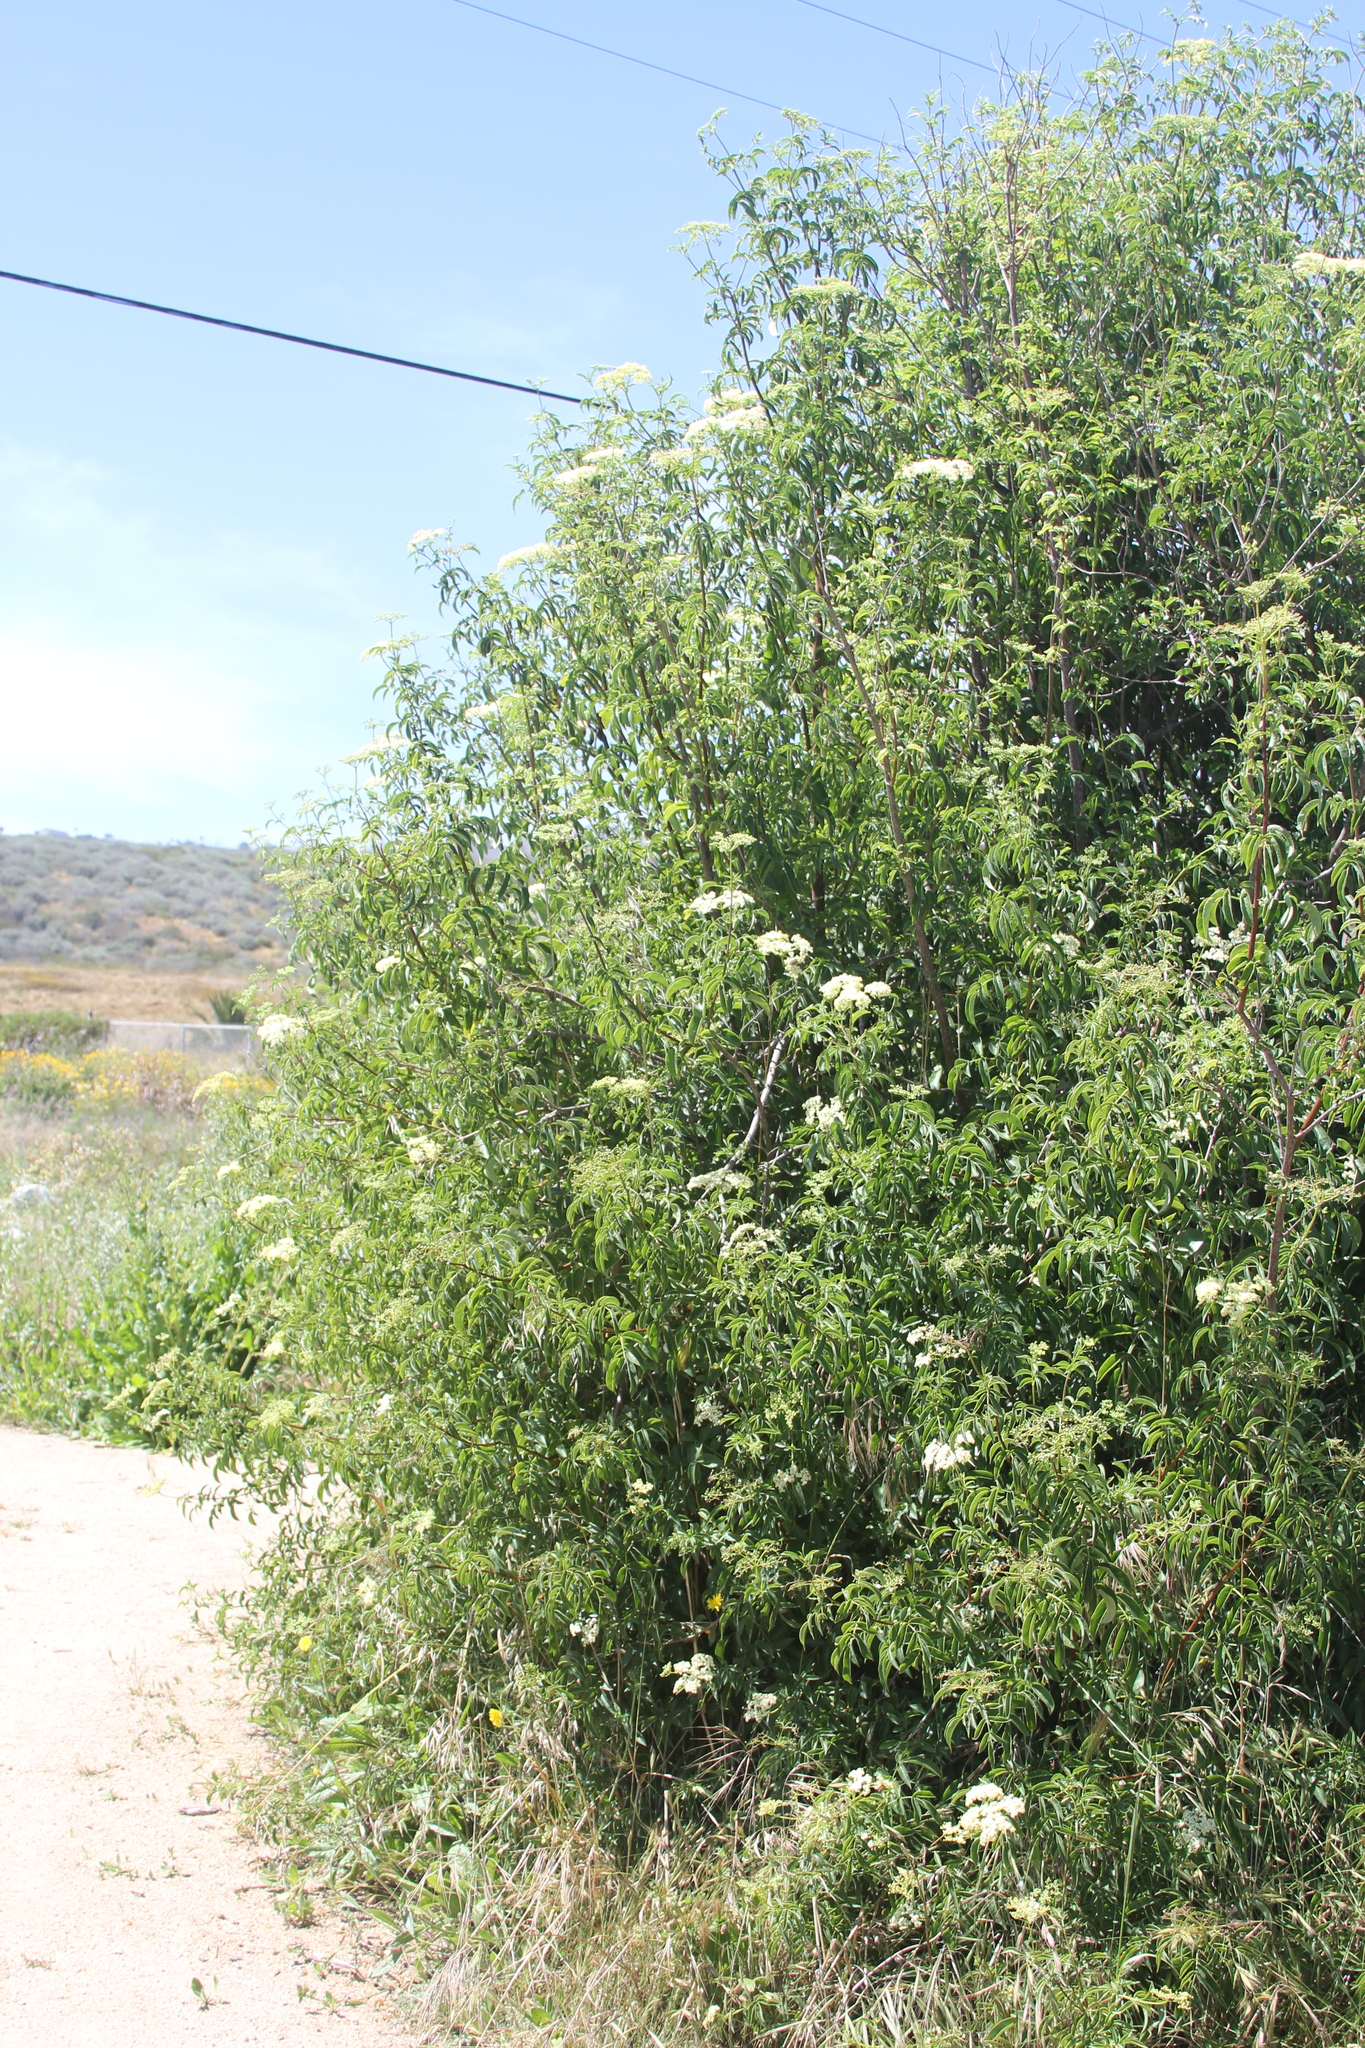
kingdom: Plantae
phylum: Tracheophyta
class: Magnoliopsida
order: Dipsacales
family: Viburnaceae
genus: Sambucus
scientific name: Sambucus cerulea
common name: Blue elder
